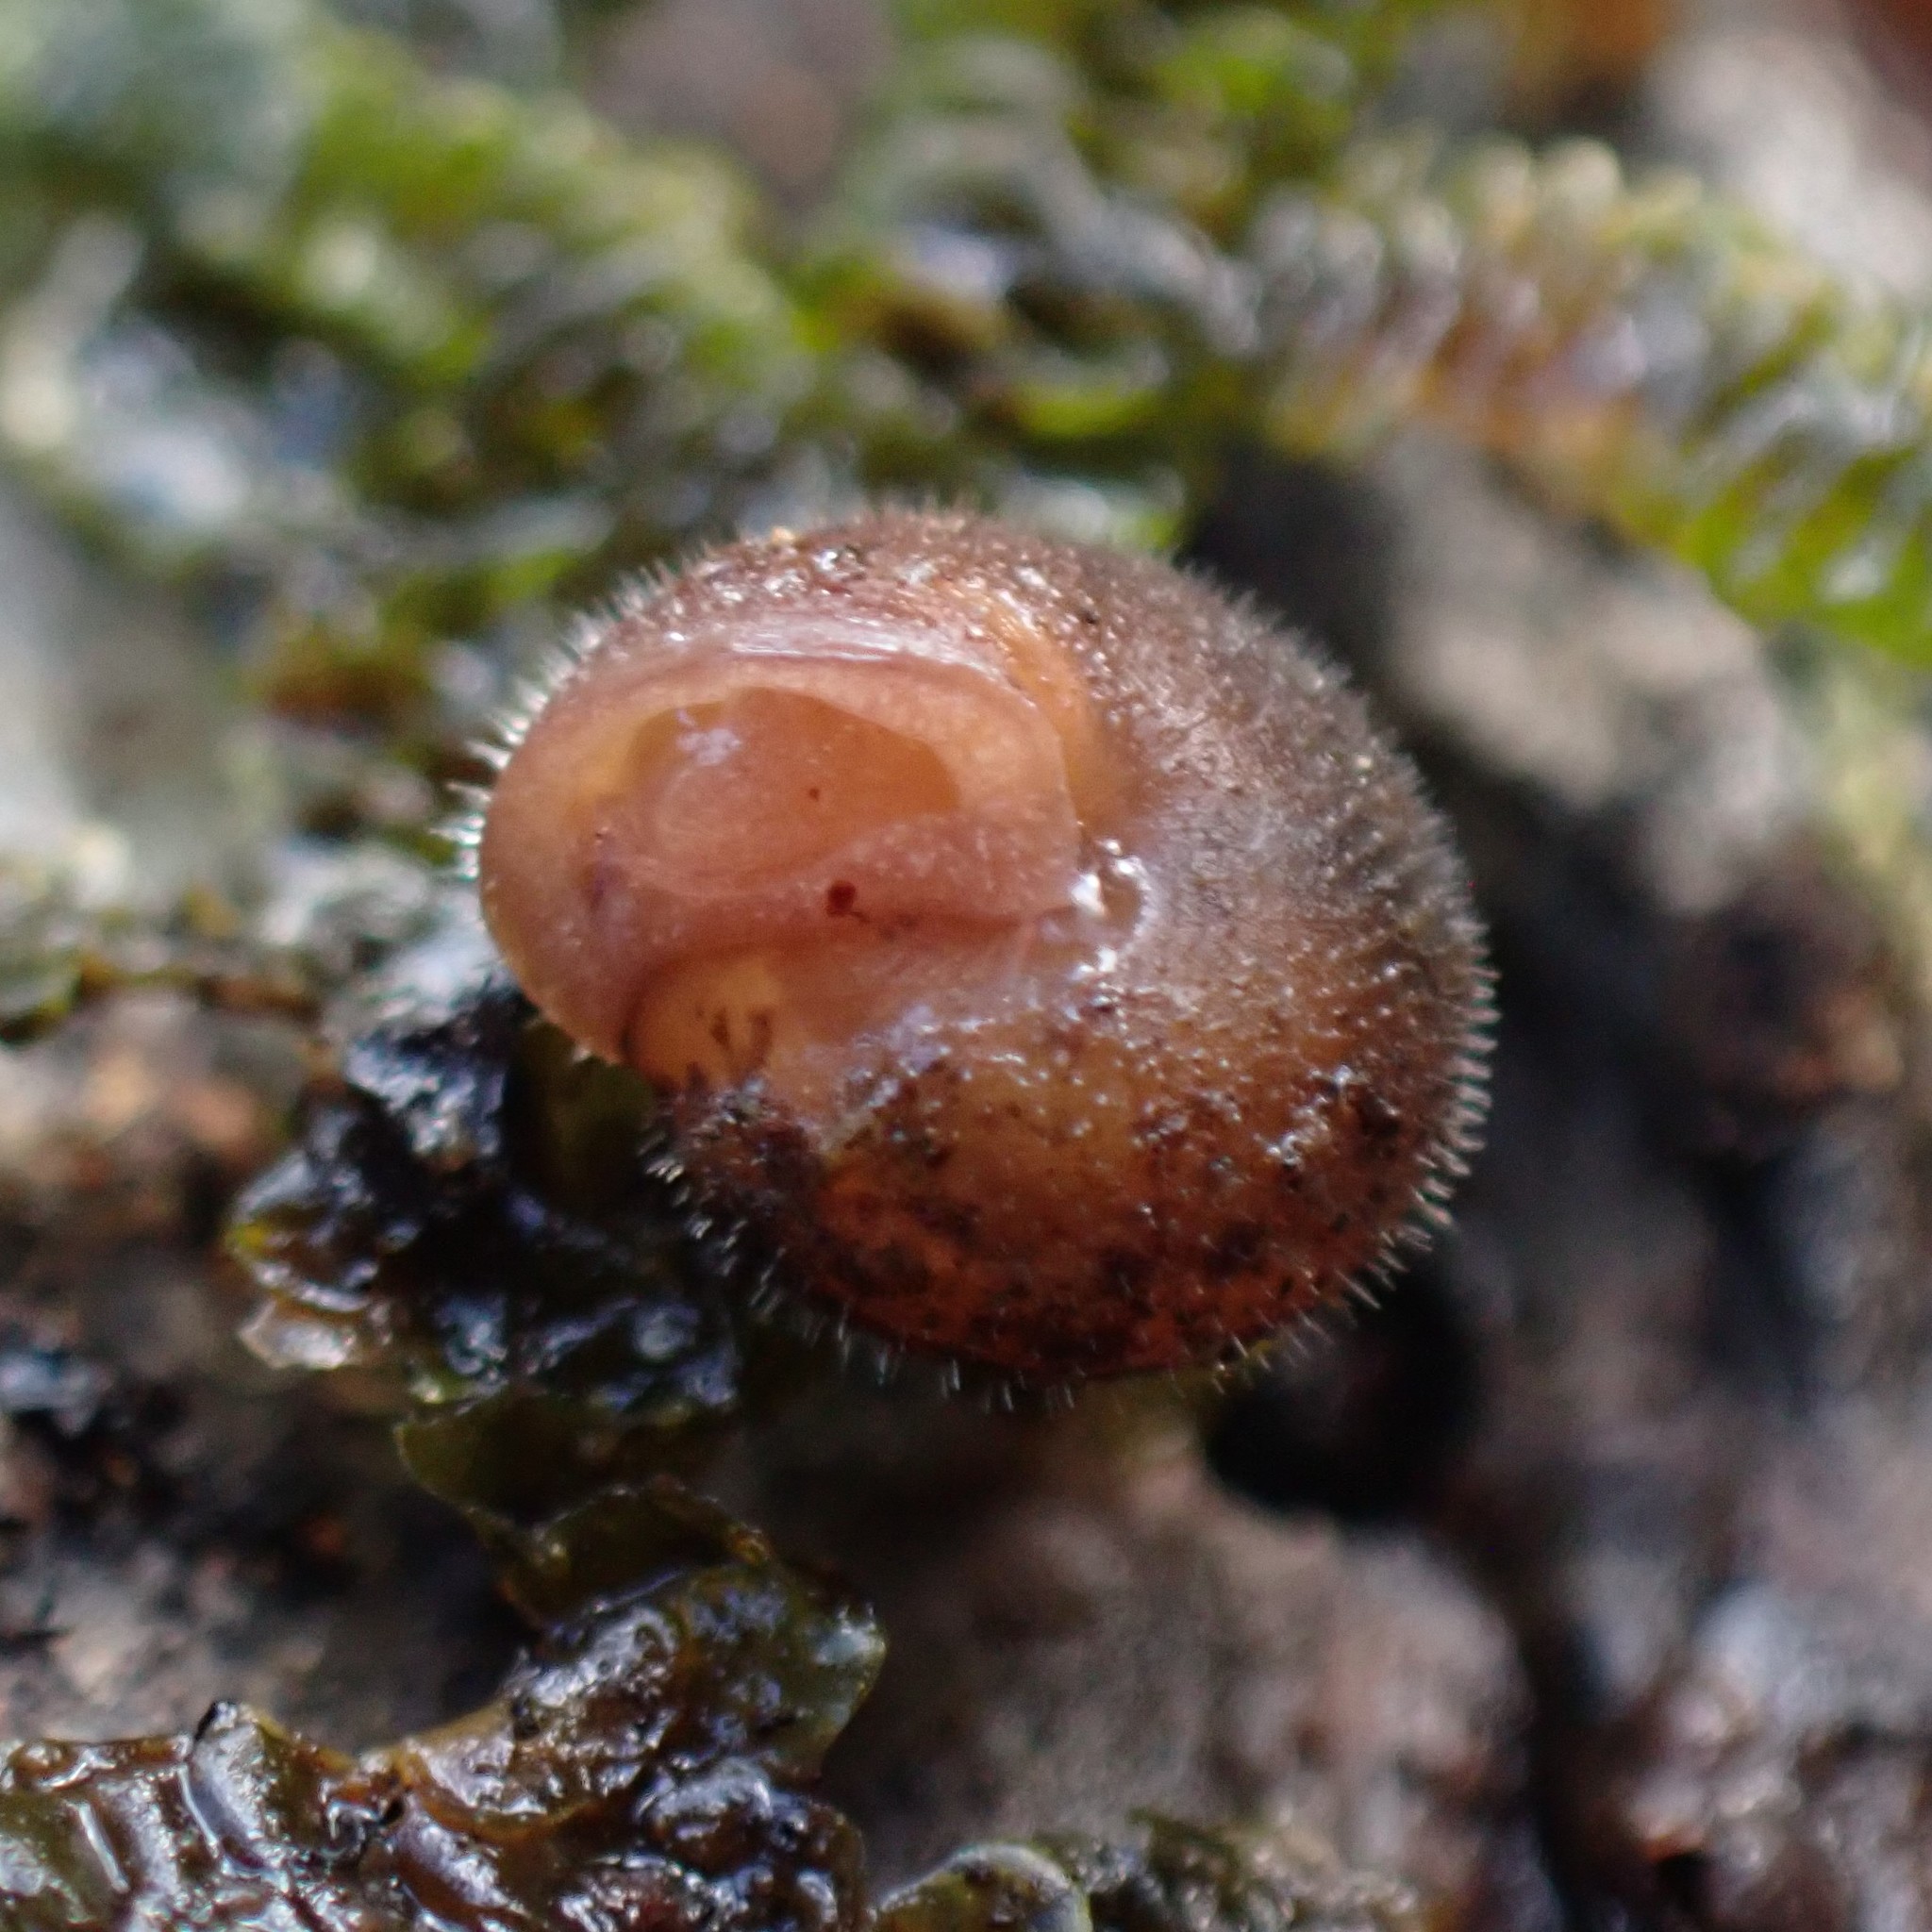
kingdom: Animalia
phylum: Mollusca
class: Gastropoda
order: Stylommatophora
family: Polygyridae
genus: Vespericola
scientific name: Vespericola columbianus
